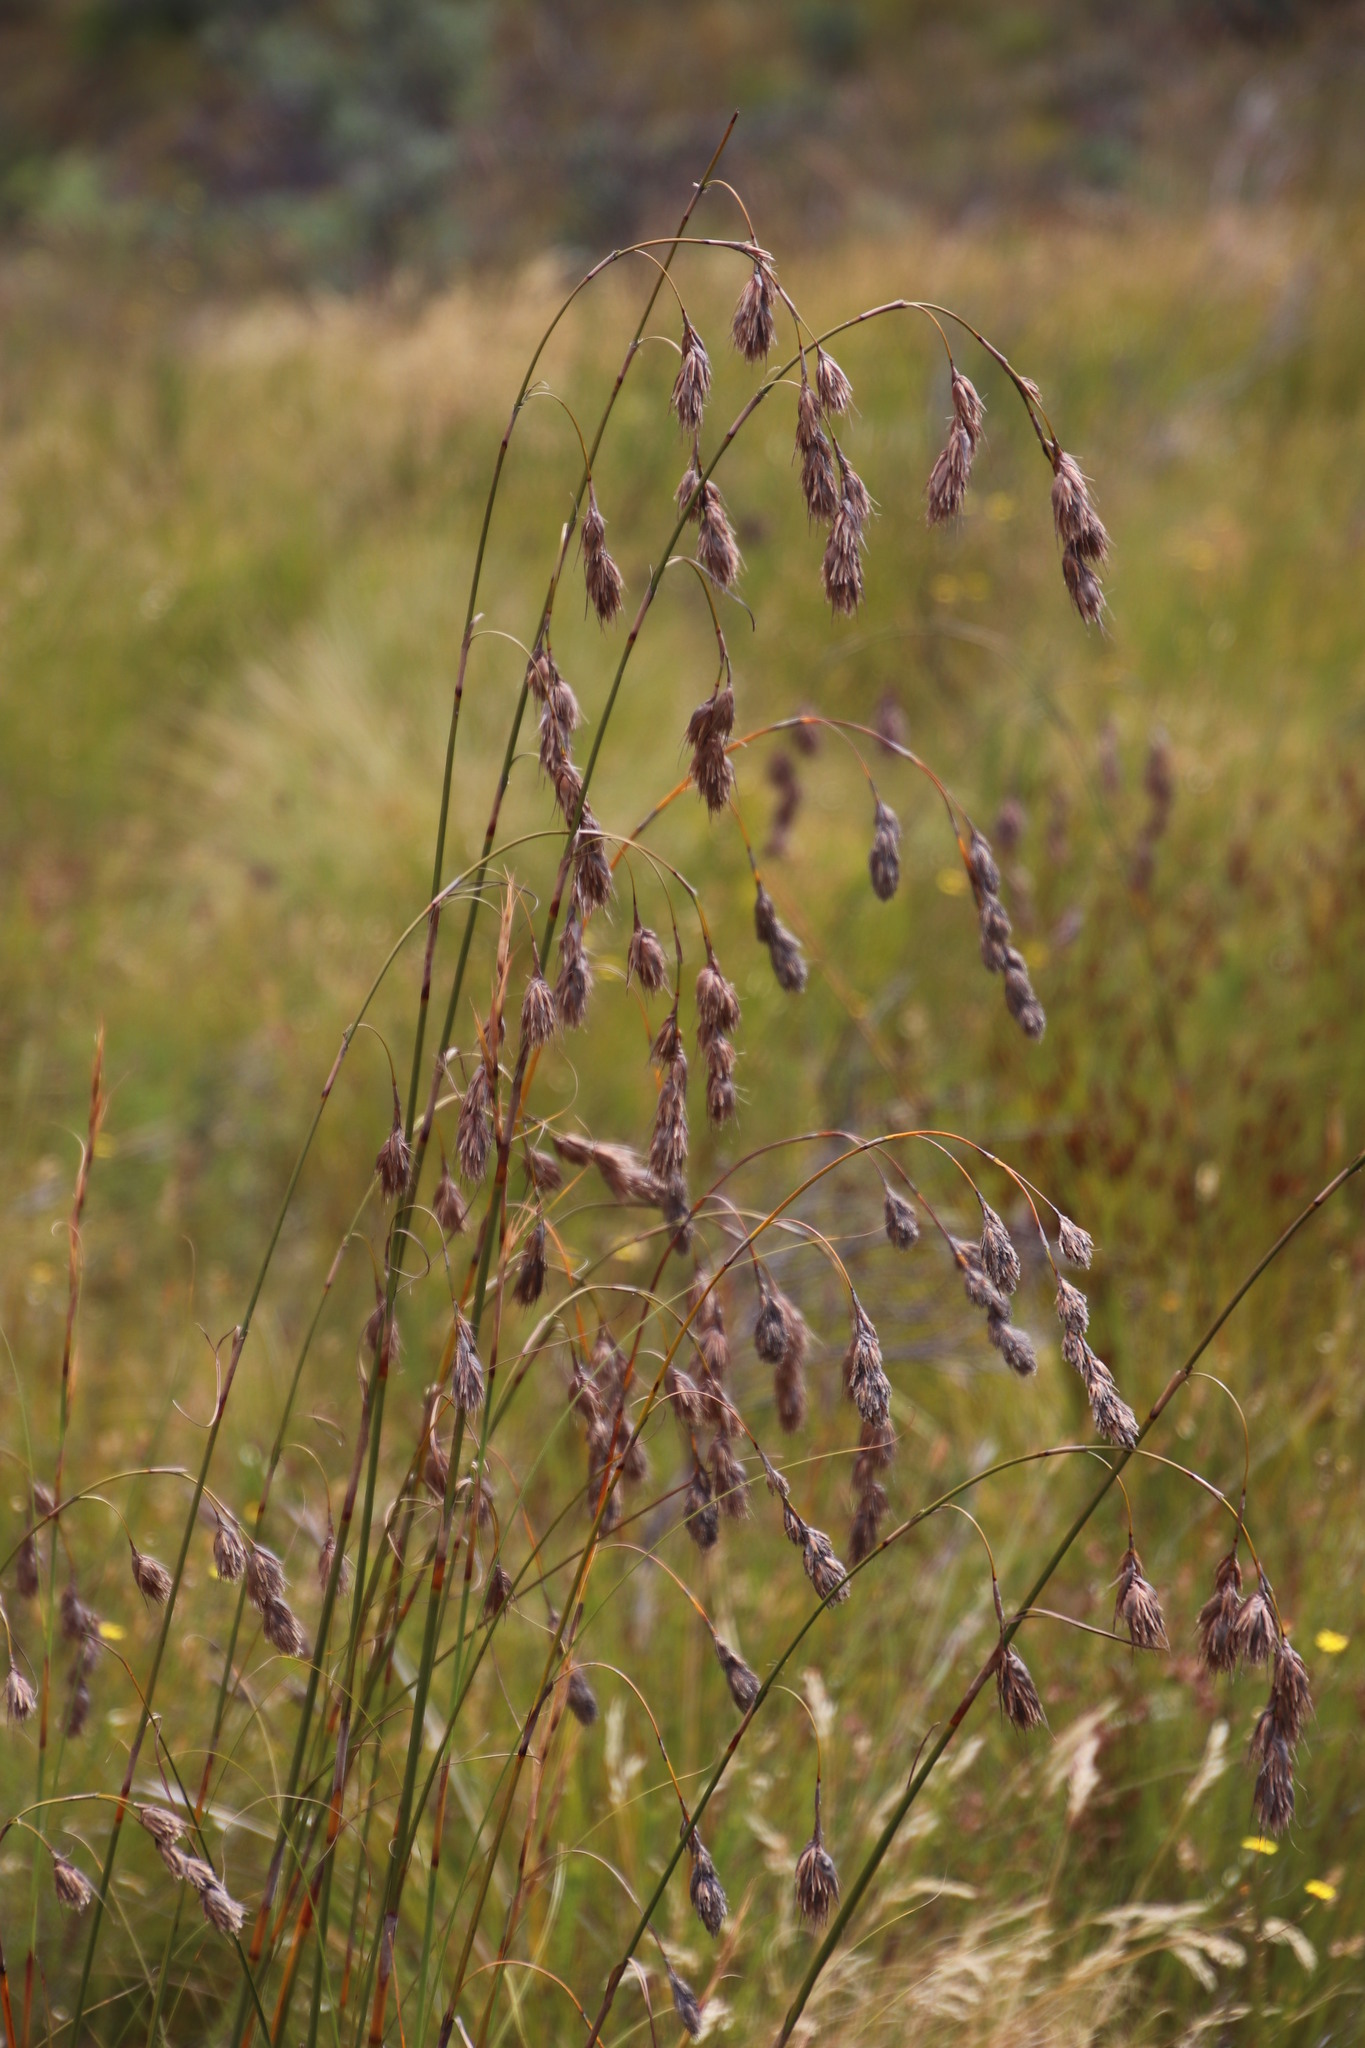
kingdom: Plantae
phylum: Tracheophyta
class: Liliopsida
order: Poales
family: Cyperaceae
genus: Tetraria
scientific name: Tetraria bromoides
